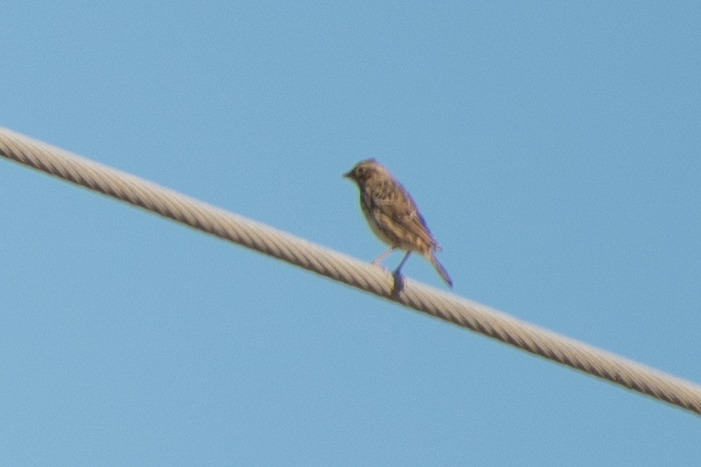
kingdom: Animalia
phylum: Chordata
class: Aves
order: Passeriformes
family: Passerellidae
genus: Passerculus
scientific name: Passerculus sandwichensis
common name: Savannah sparrow
